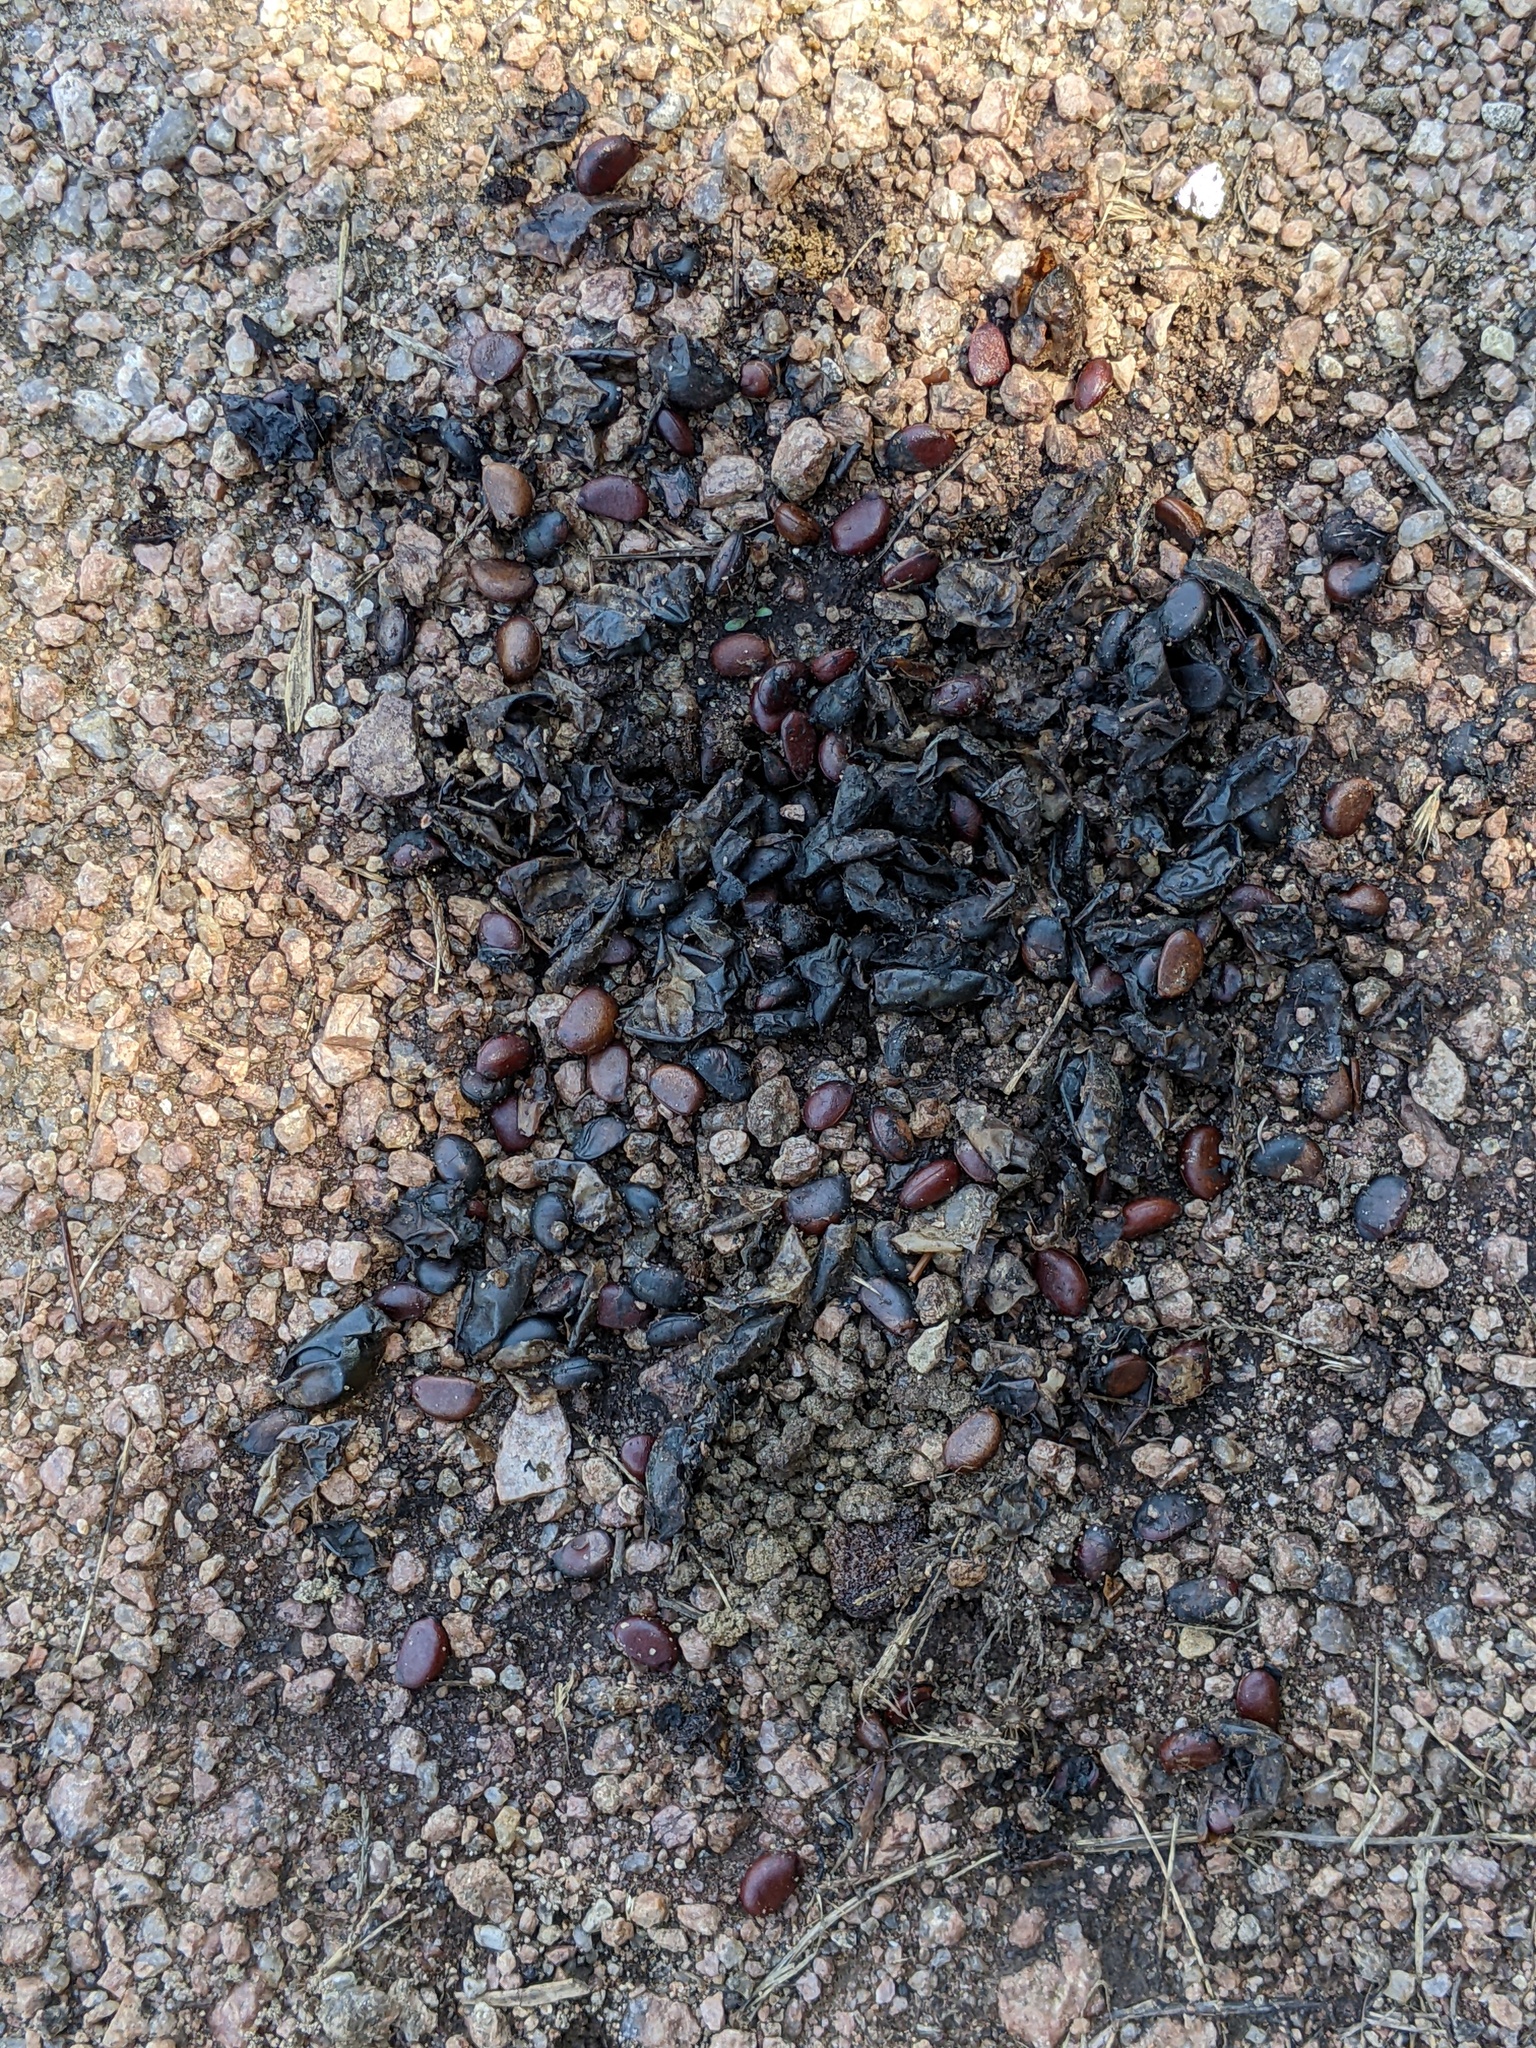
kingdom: Plantae
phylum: Tracheophyta
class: Magnoliopsida
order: Ericales
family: Ebenaceae
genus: Diospyros
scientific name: Diospyros texana
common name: Texas persimmon
